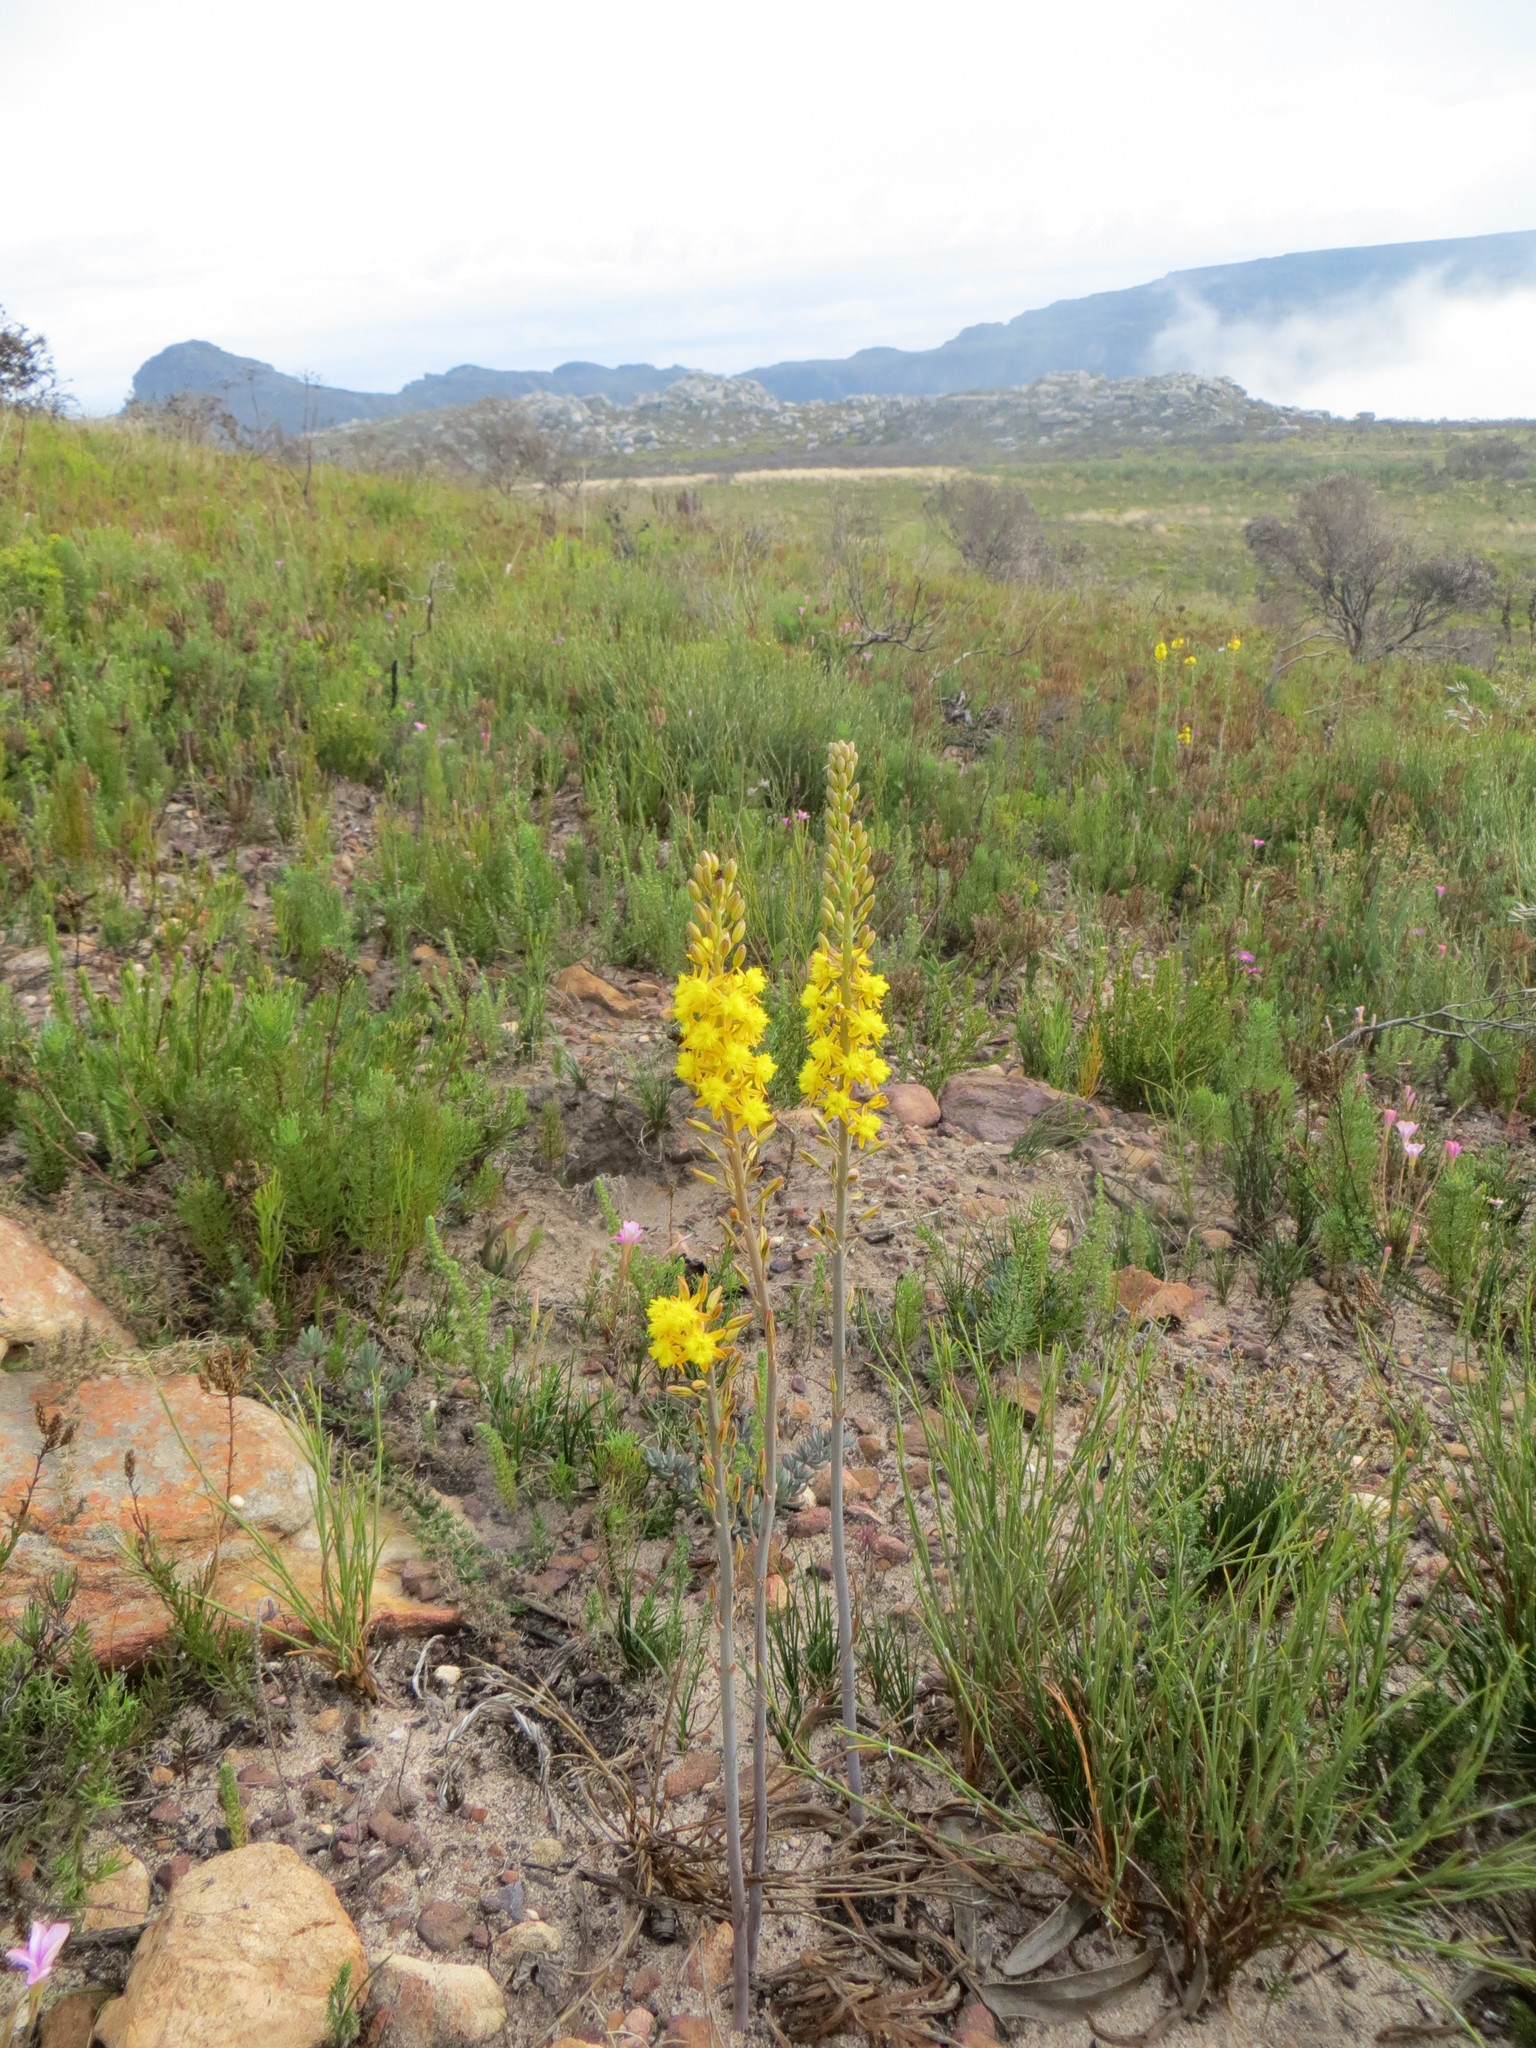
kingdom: Plantae
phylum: Tracheophyta
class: Liliopsida
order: Asparagales
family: Asphodelaceae
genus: Bulbine
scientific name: Bulbine cepacea
